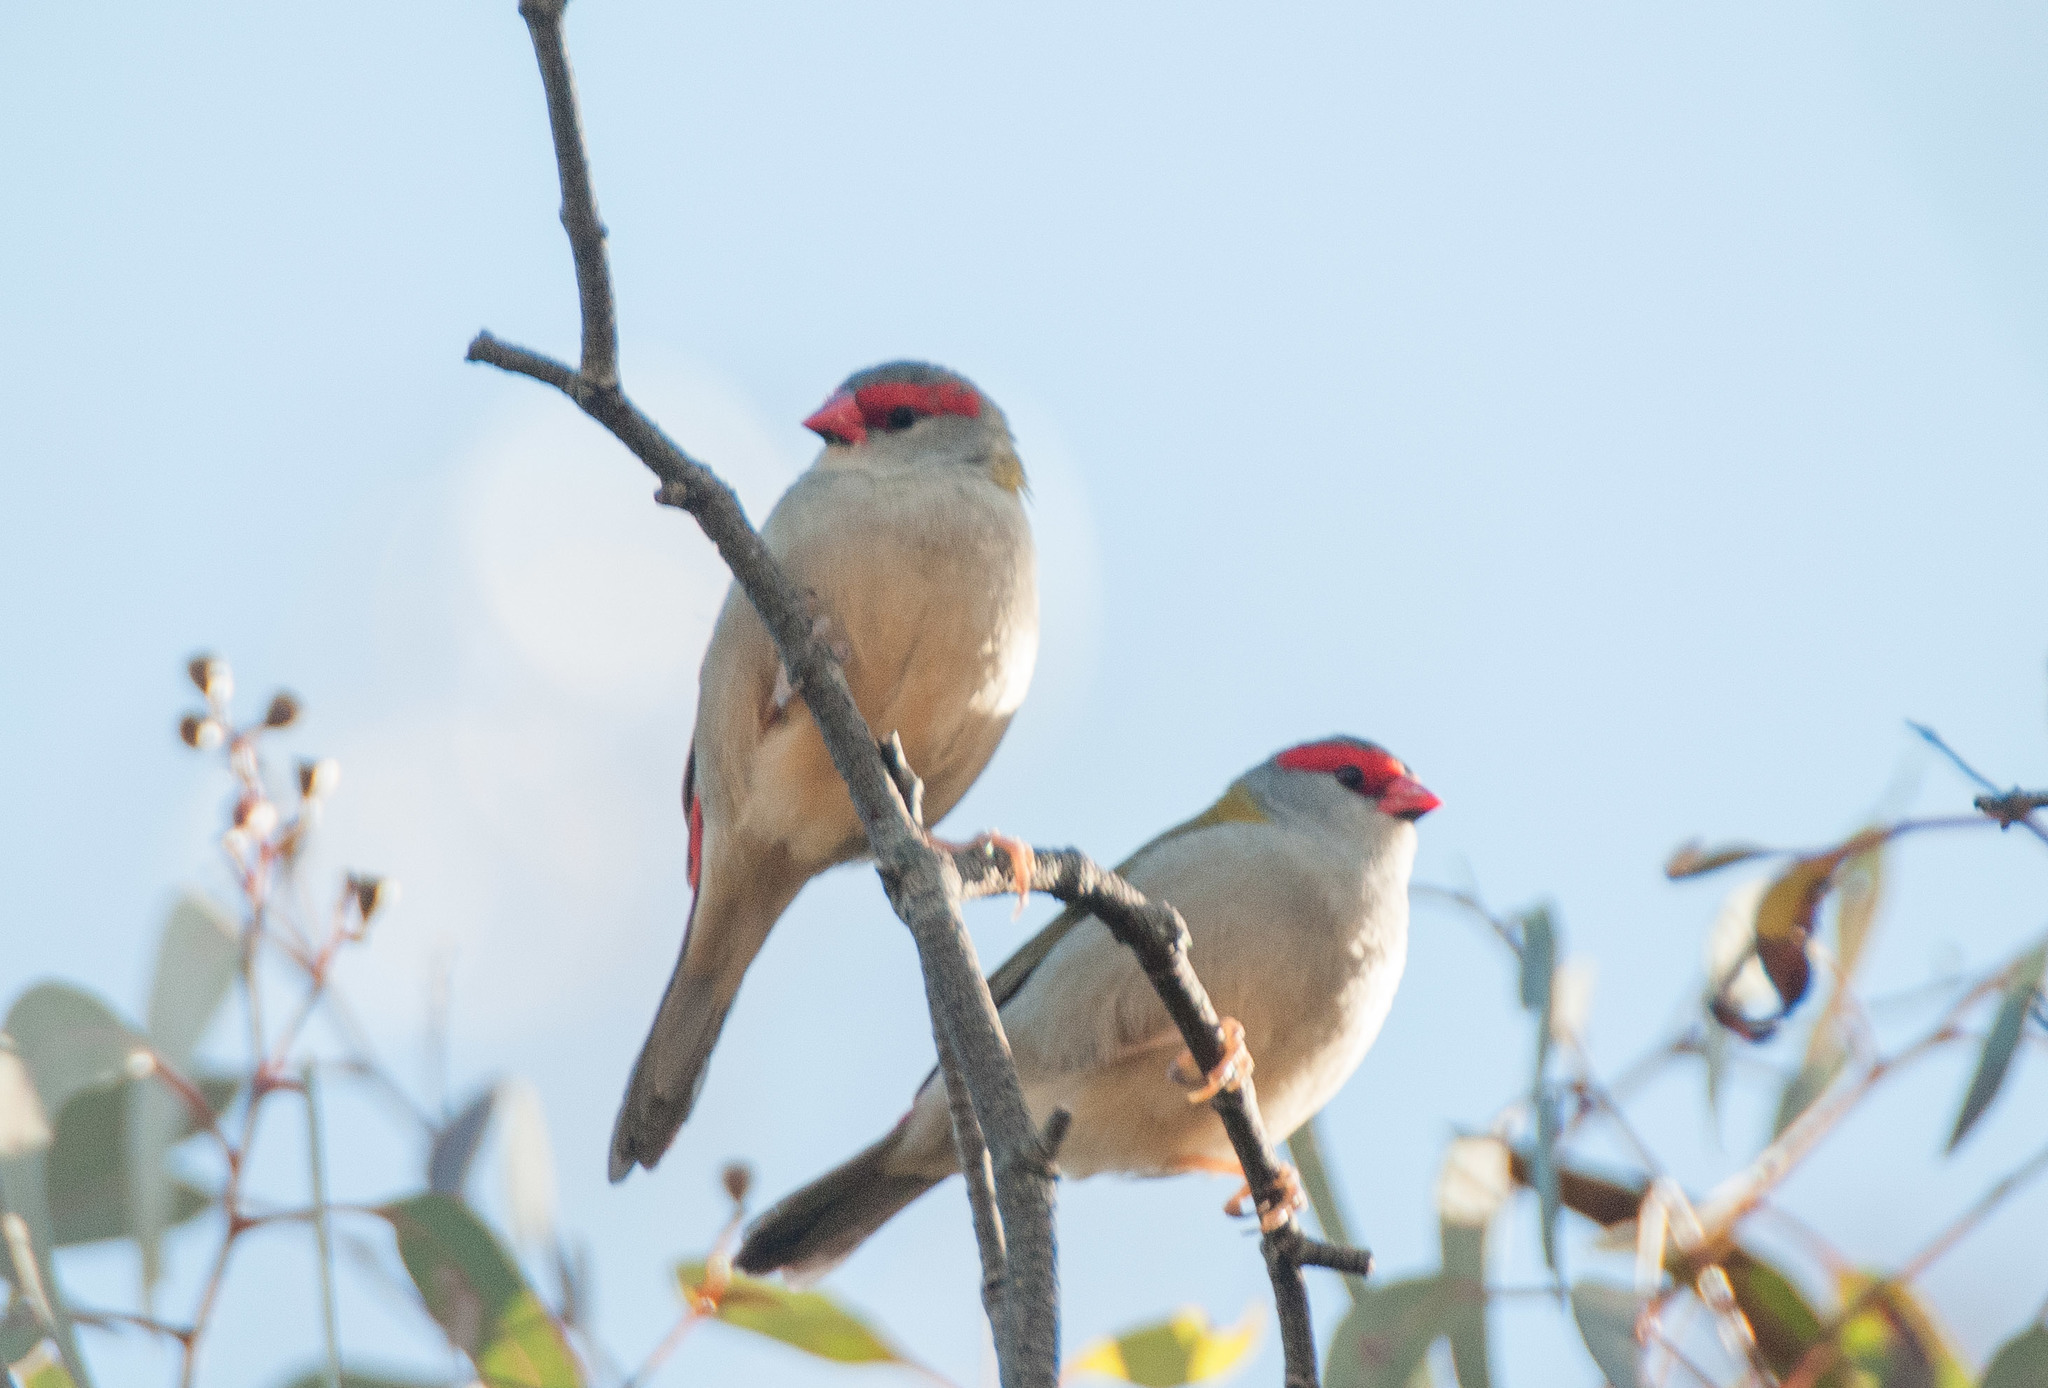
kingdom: Animalia
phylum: Chordata
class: Aves
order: Passeriformes
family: Estrildidae
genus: Neochmia
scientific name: Neochmia temporalis
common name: Red-browed finch
